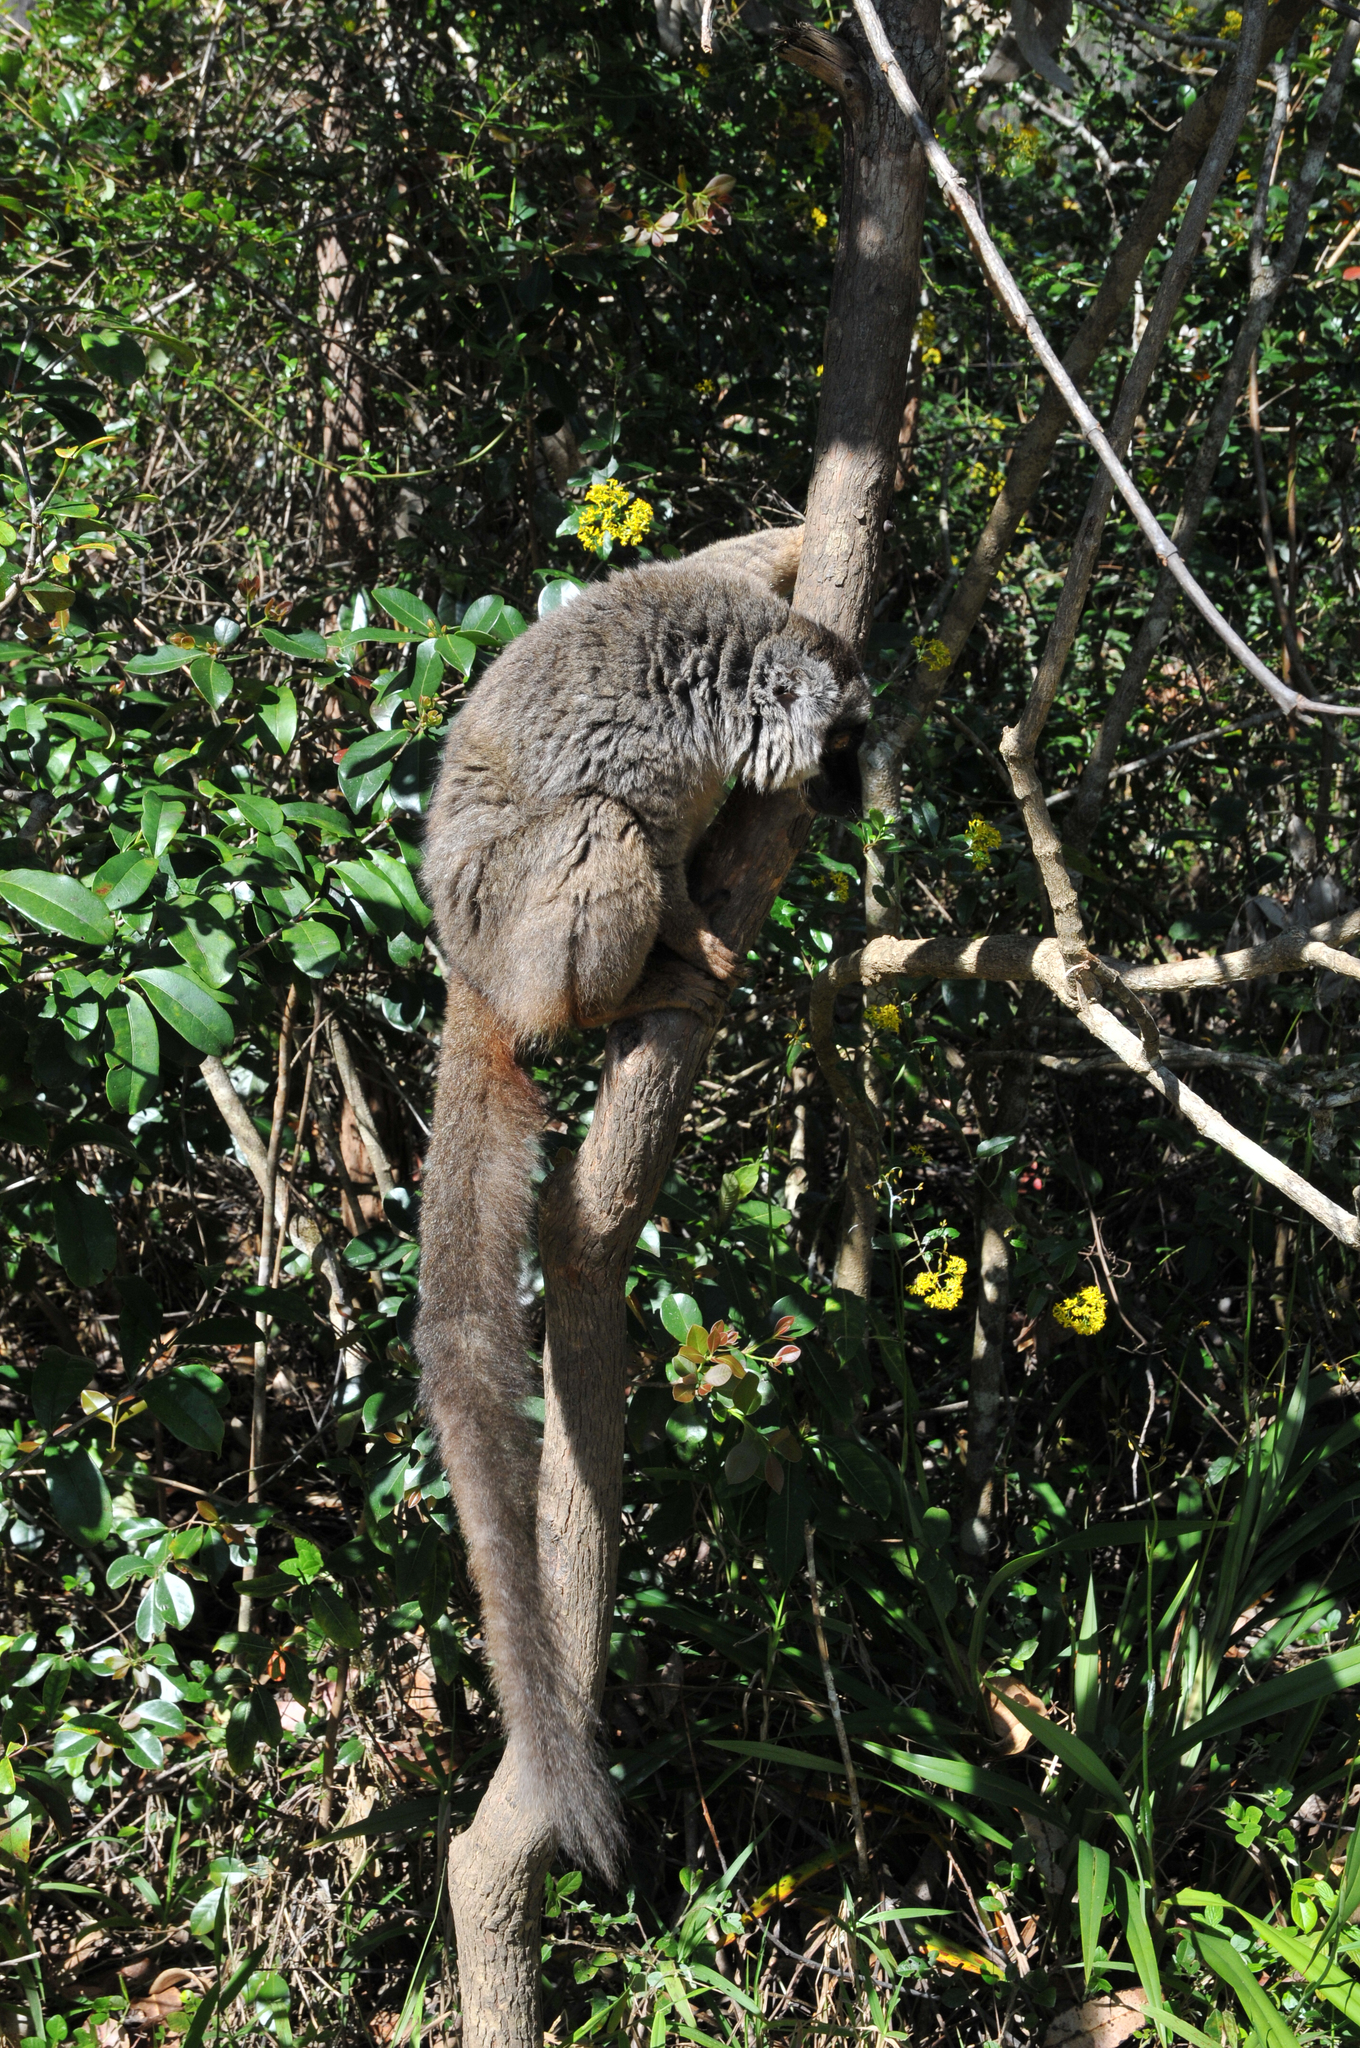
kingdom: Animalia
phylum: Chordata
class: Mammalia
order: Primates
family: Lemuridae
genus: Eulemur
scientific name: Eulemur fulvus
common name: Brown lemur
